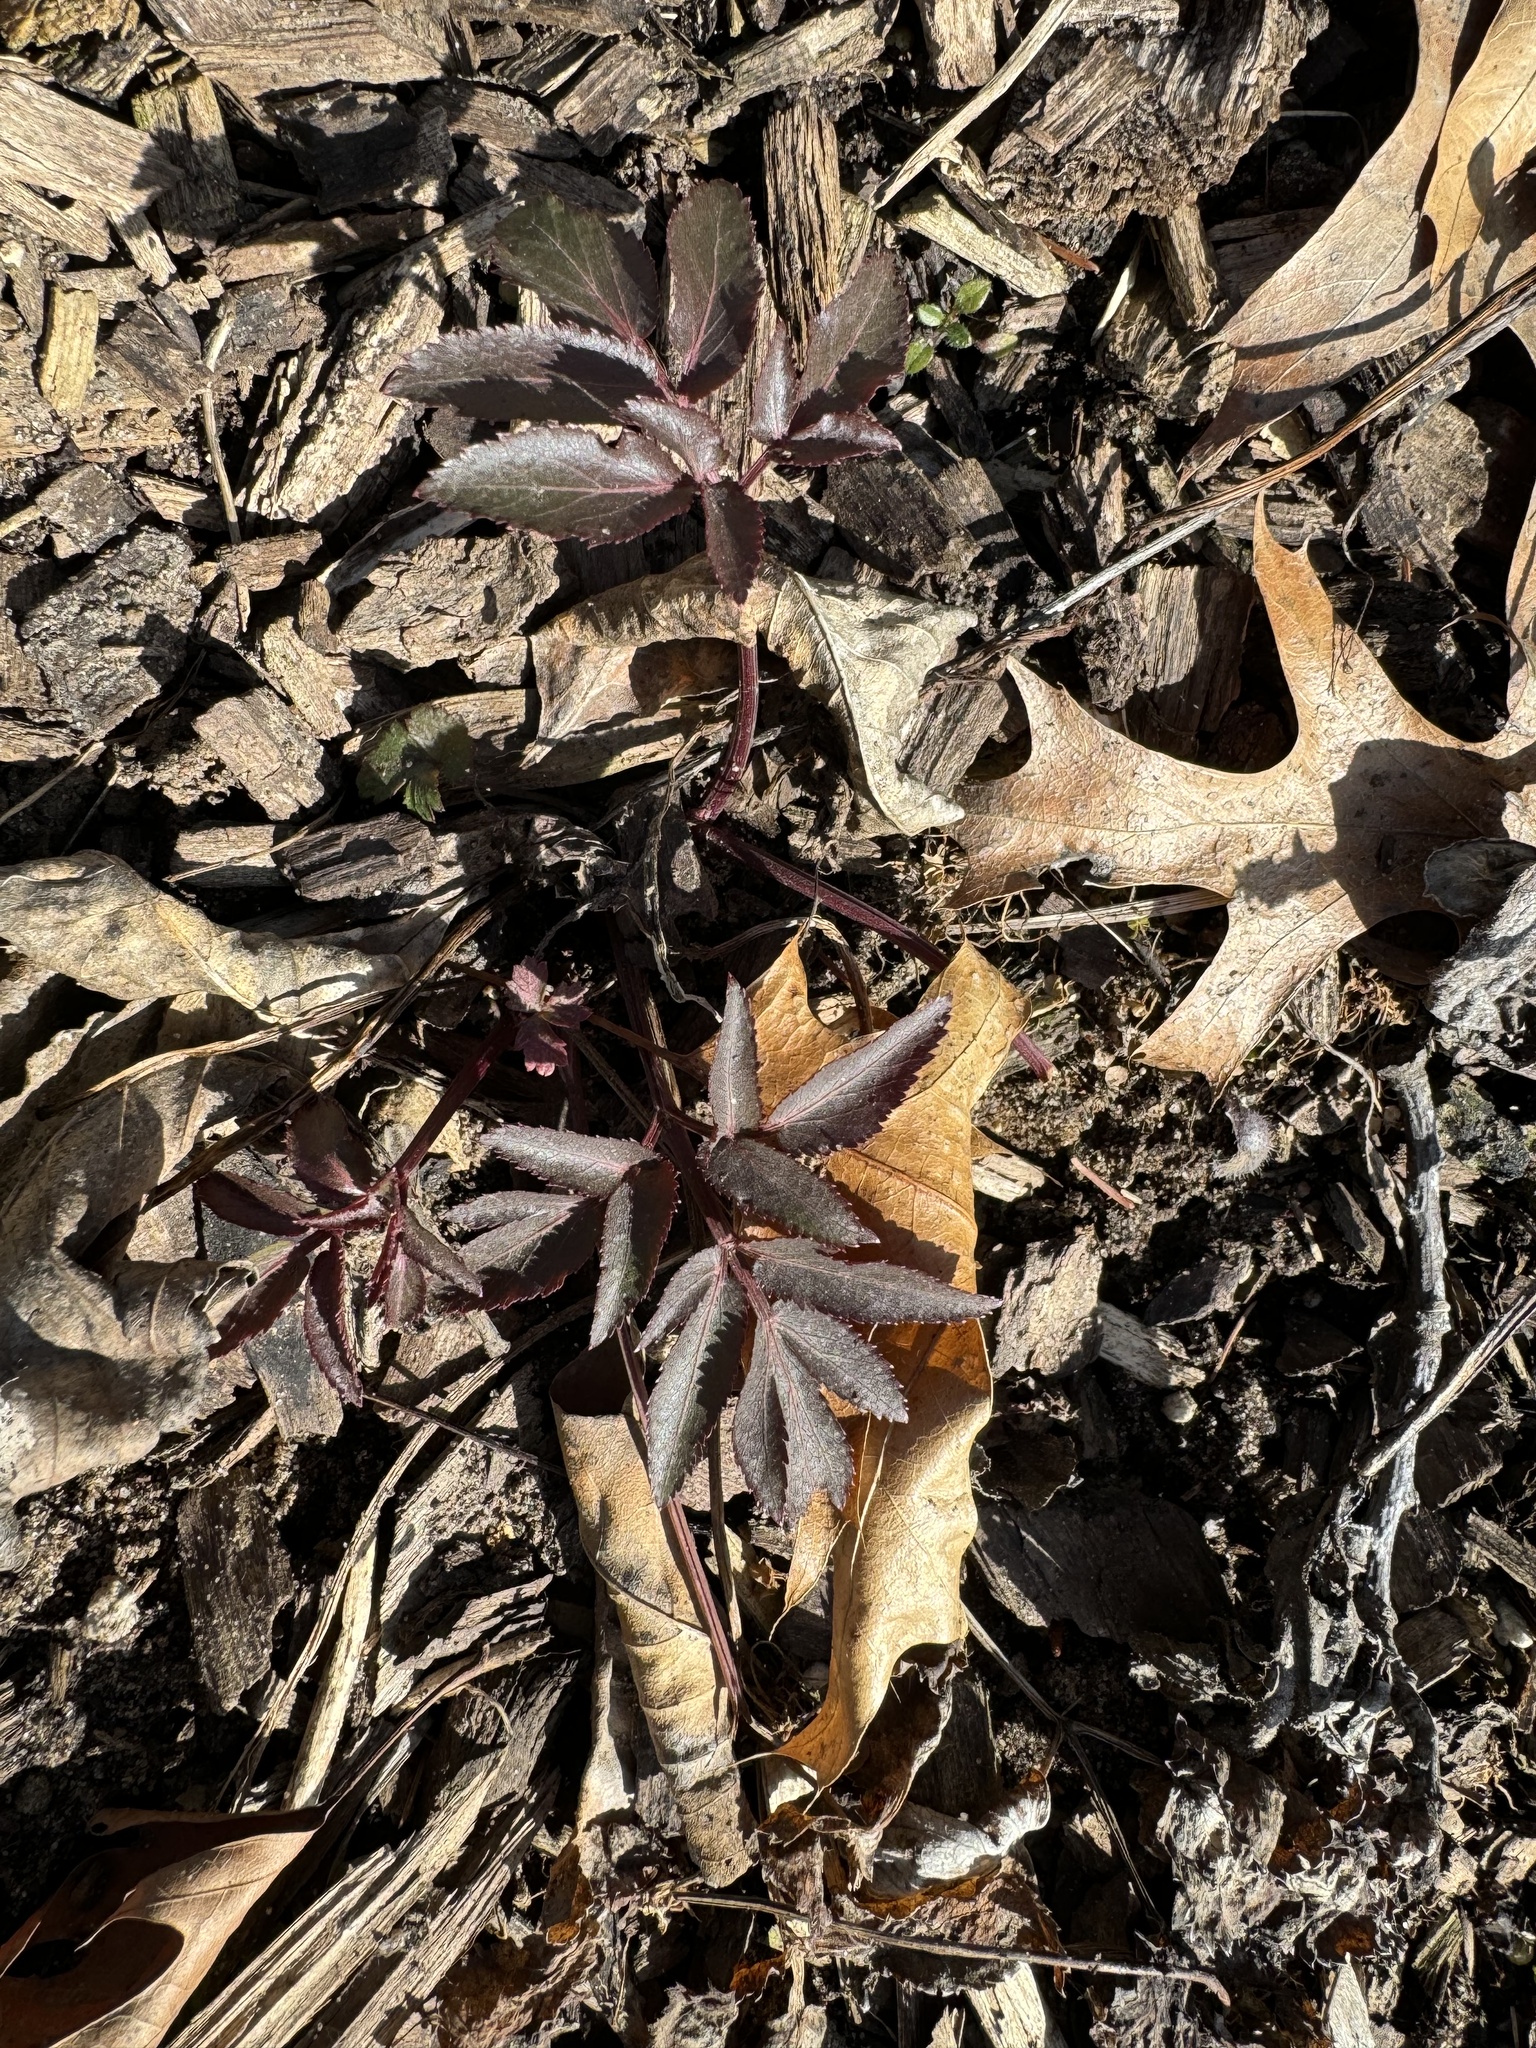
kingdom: Plantae
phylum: Tracheophyta
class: Magnoliopsida
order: Apiales
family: Apiaceae
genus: Zizia
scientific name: Zizia aurea
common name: Golden alexanders
